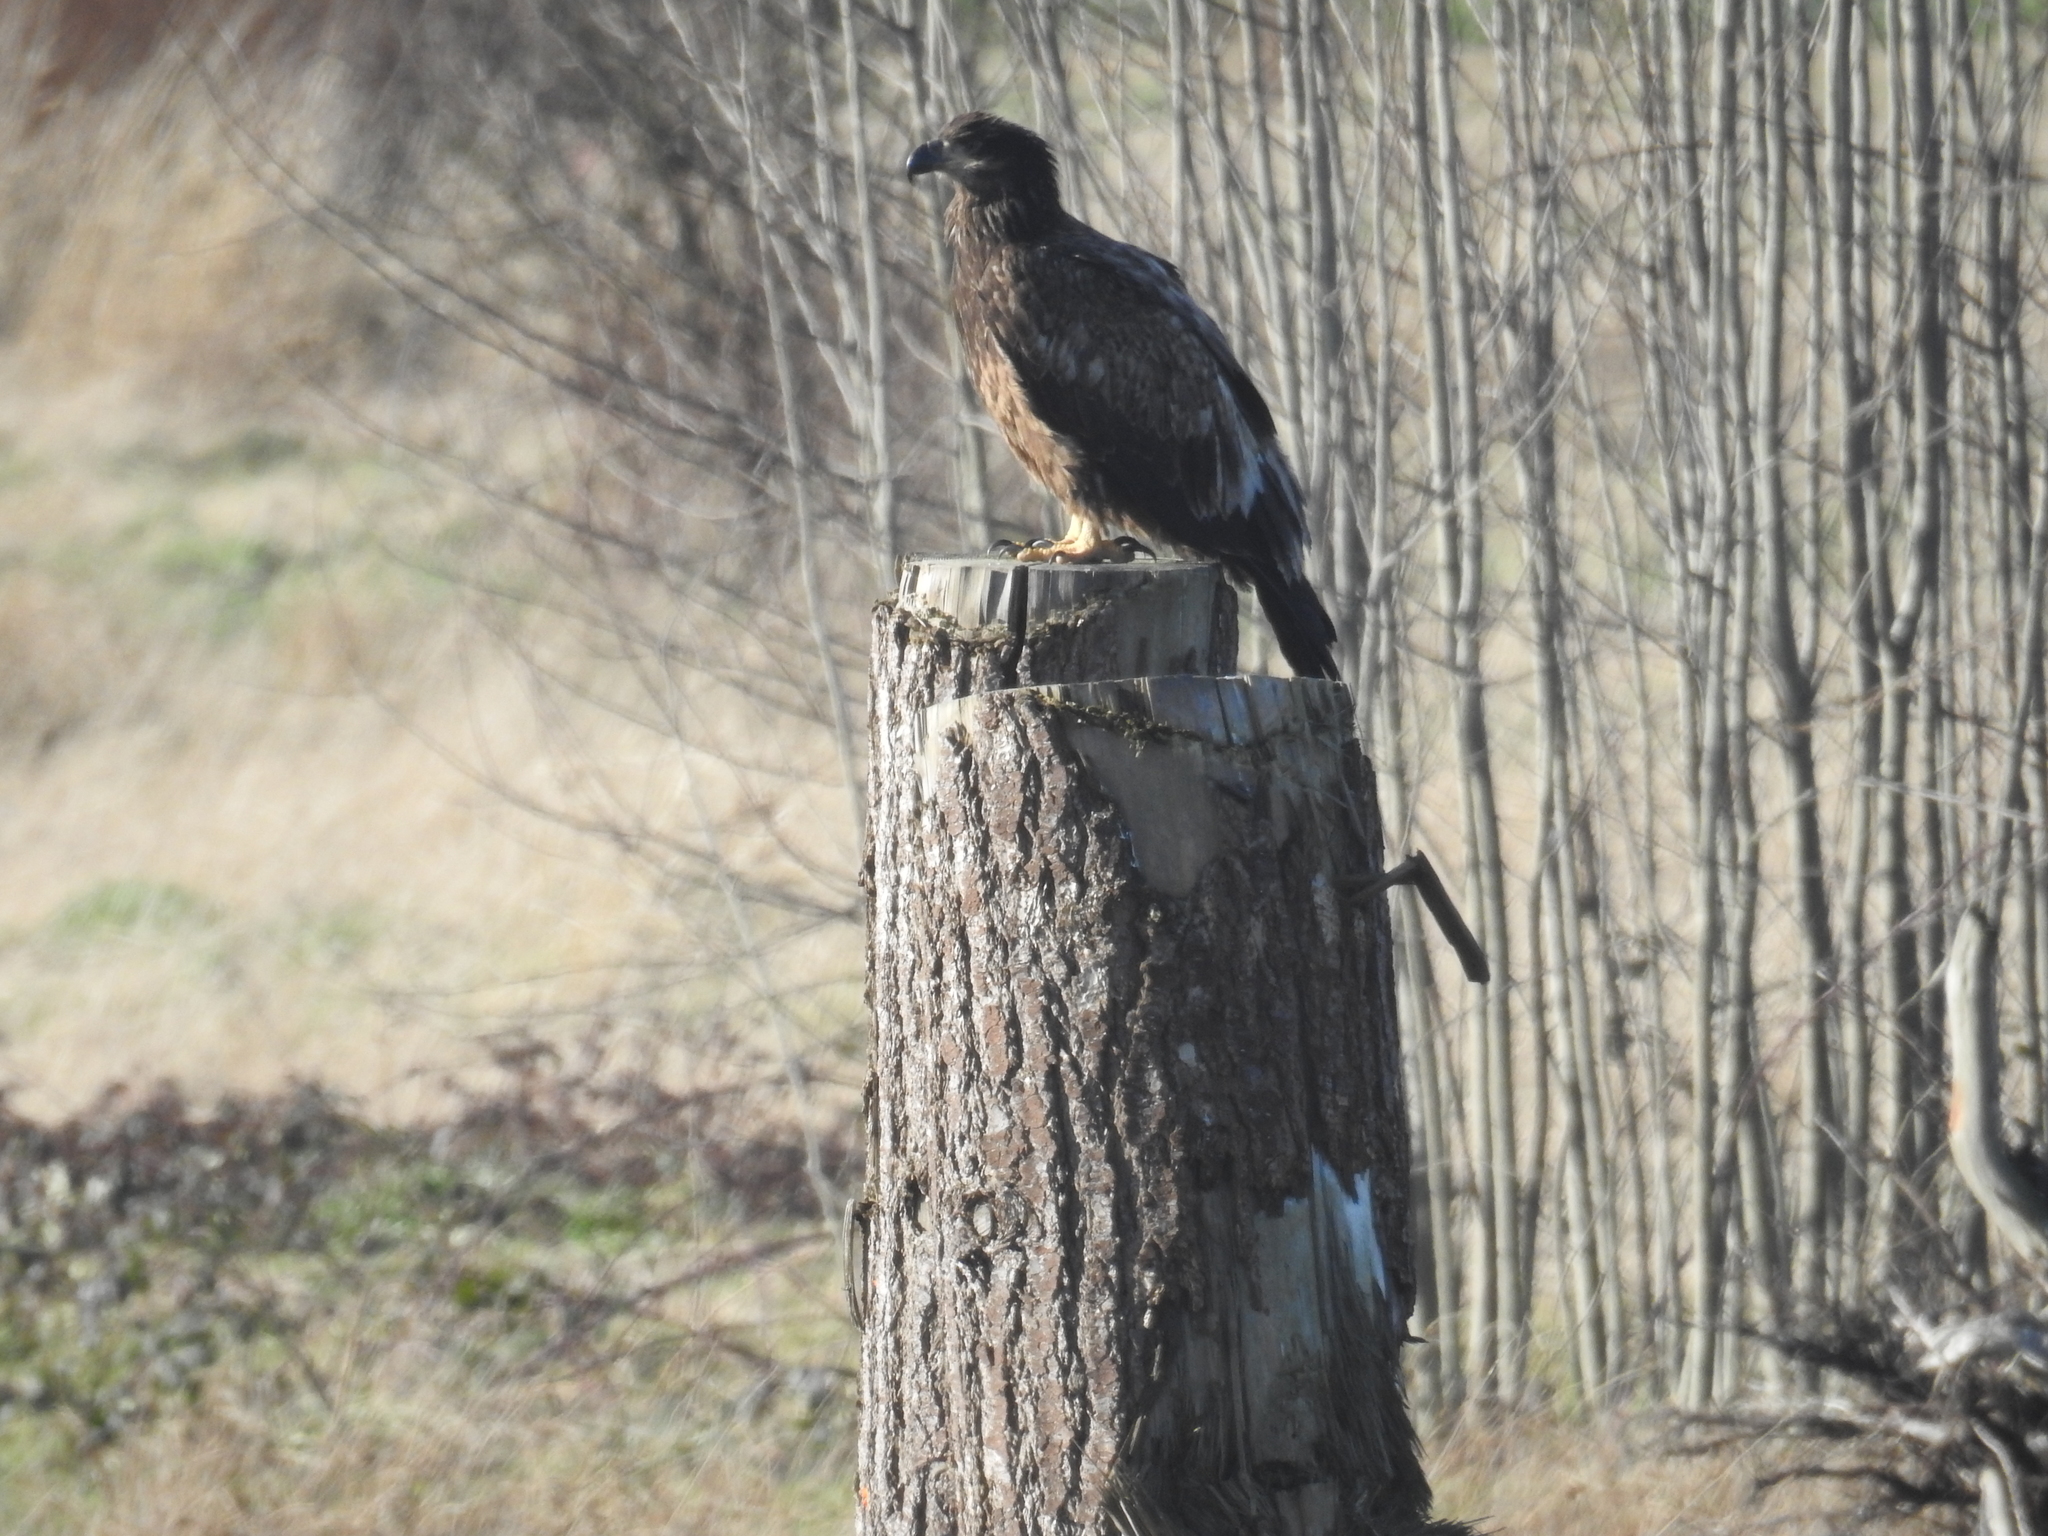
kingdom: Animalia
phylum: Chordata
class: Aves
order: Accipitriformes
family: Accipitridae
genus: Haliaeetus
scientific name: Haliaeetus leucocephalus
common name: Bald eagle
